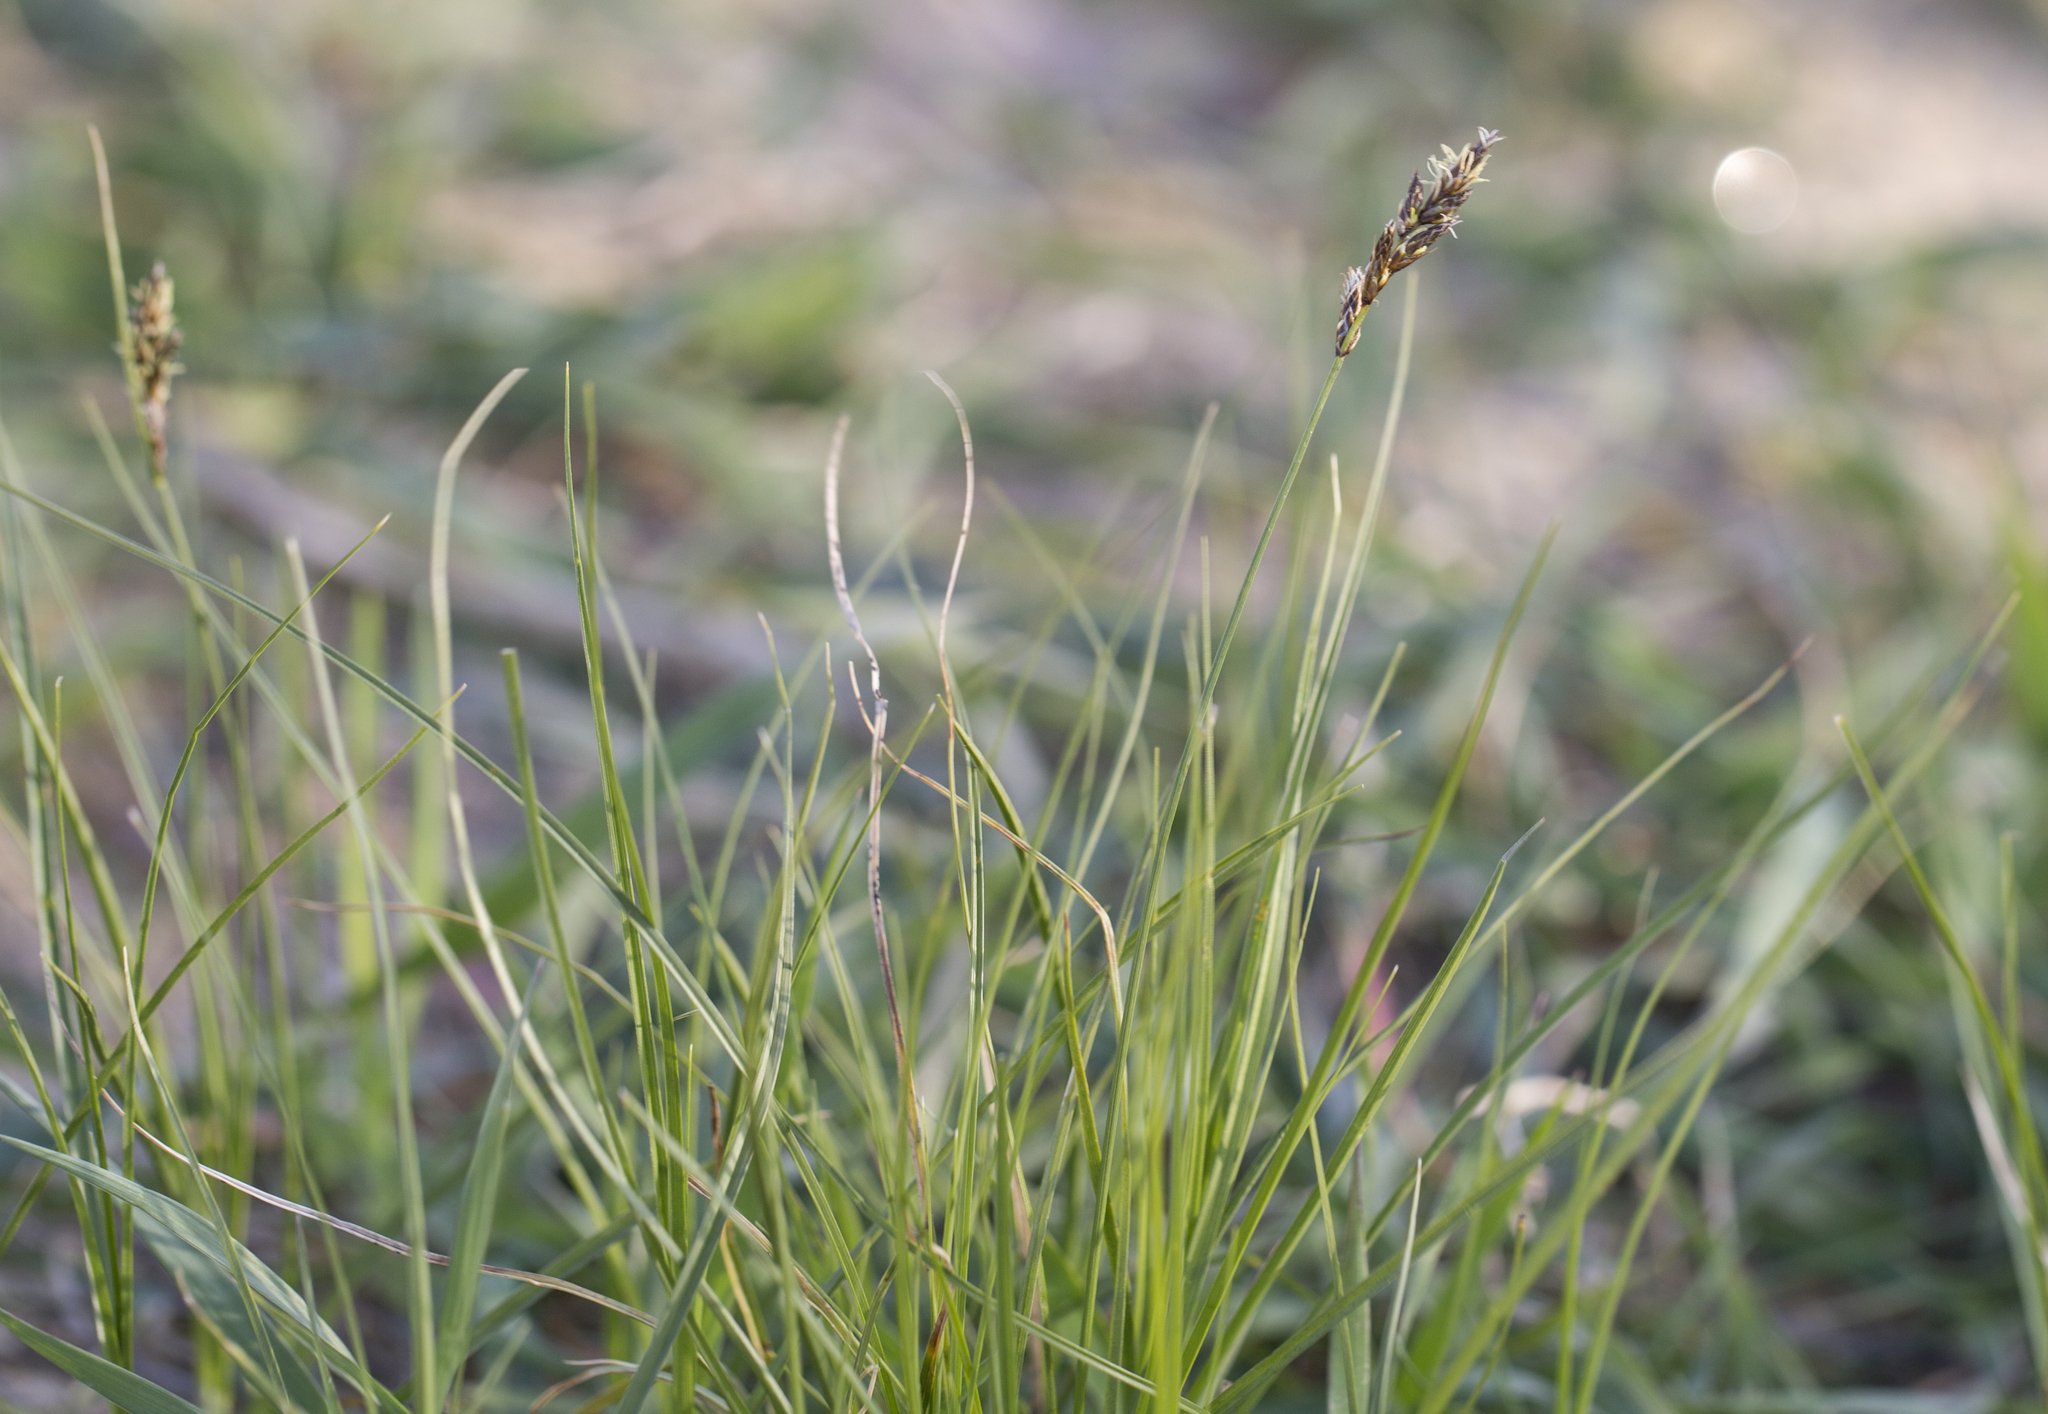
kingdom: Plantae
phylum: Tracheophyta
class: Liliopsida
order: Poales
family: Cyperaceae
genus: Carex
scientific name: Carex praecox
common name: Early sedge
